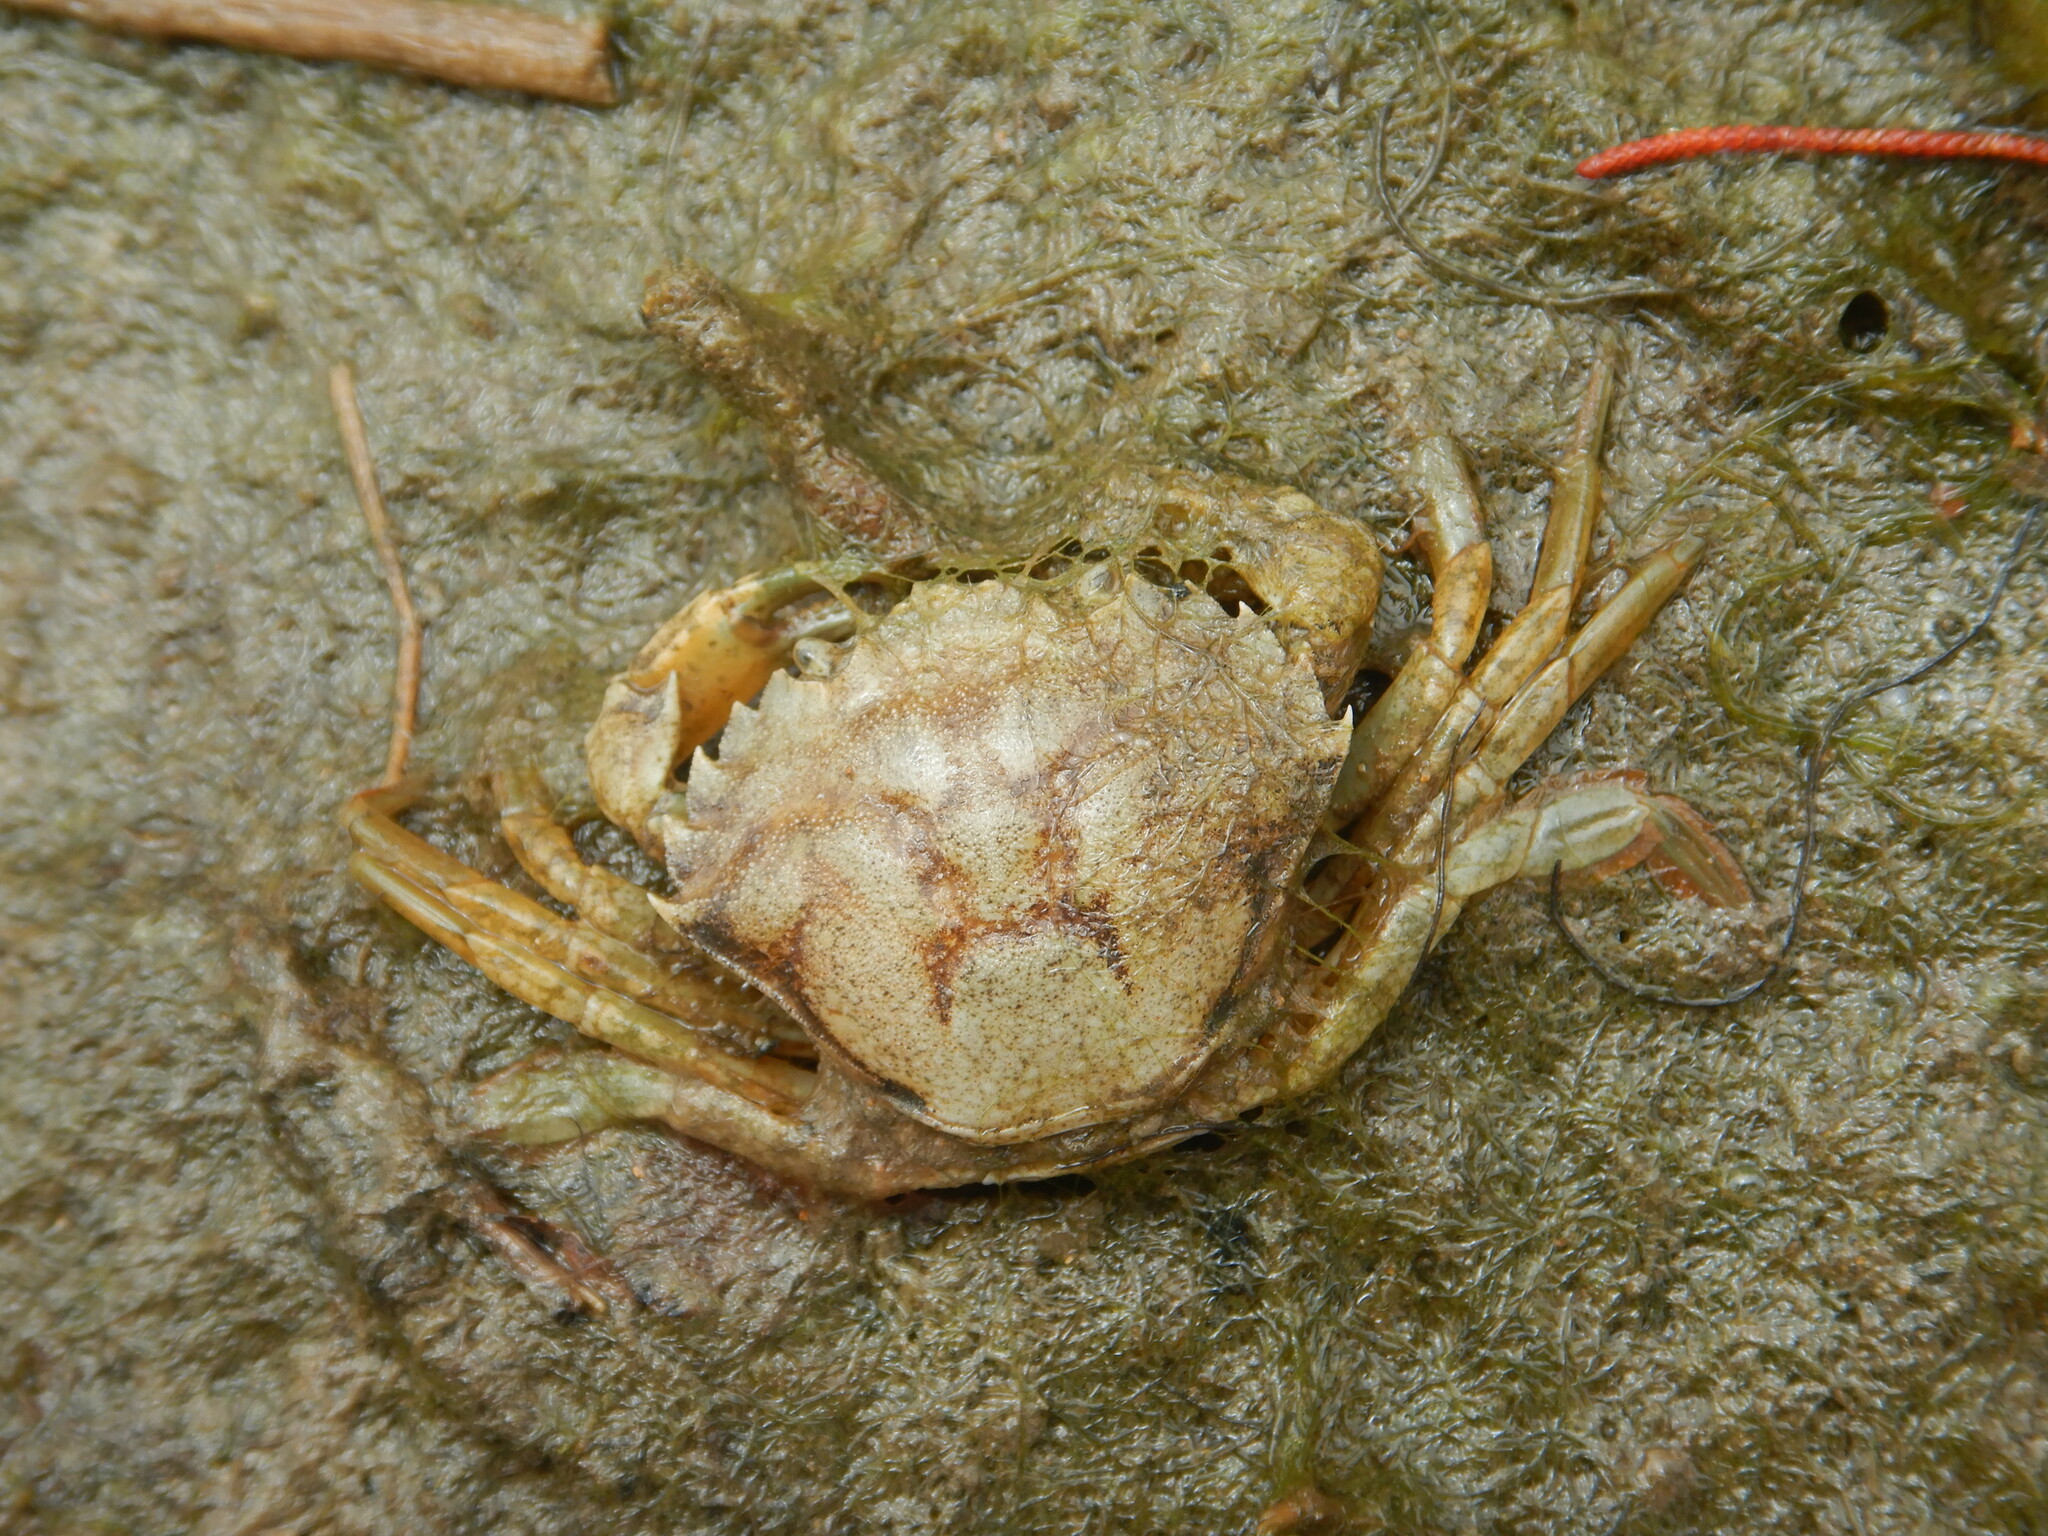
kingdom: Animalia
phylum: Arthropoda
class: Malacostraca
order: Decapoda
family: Carcinidae
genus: Carcinus
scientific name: Carcinus maenas
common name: European green crab
